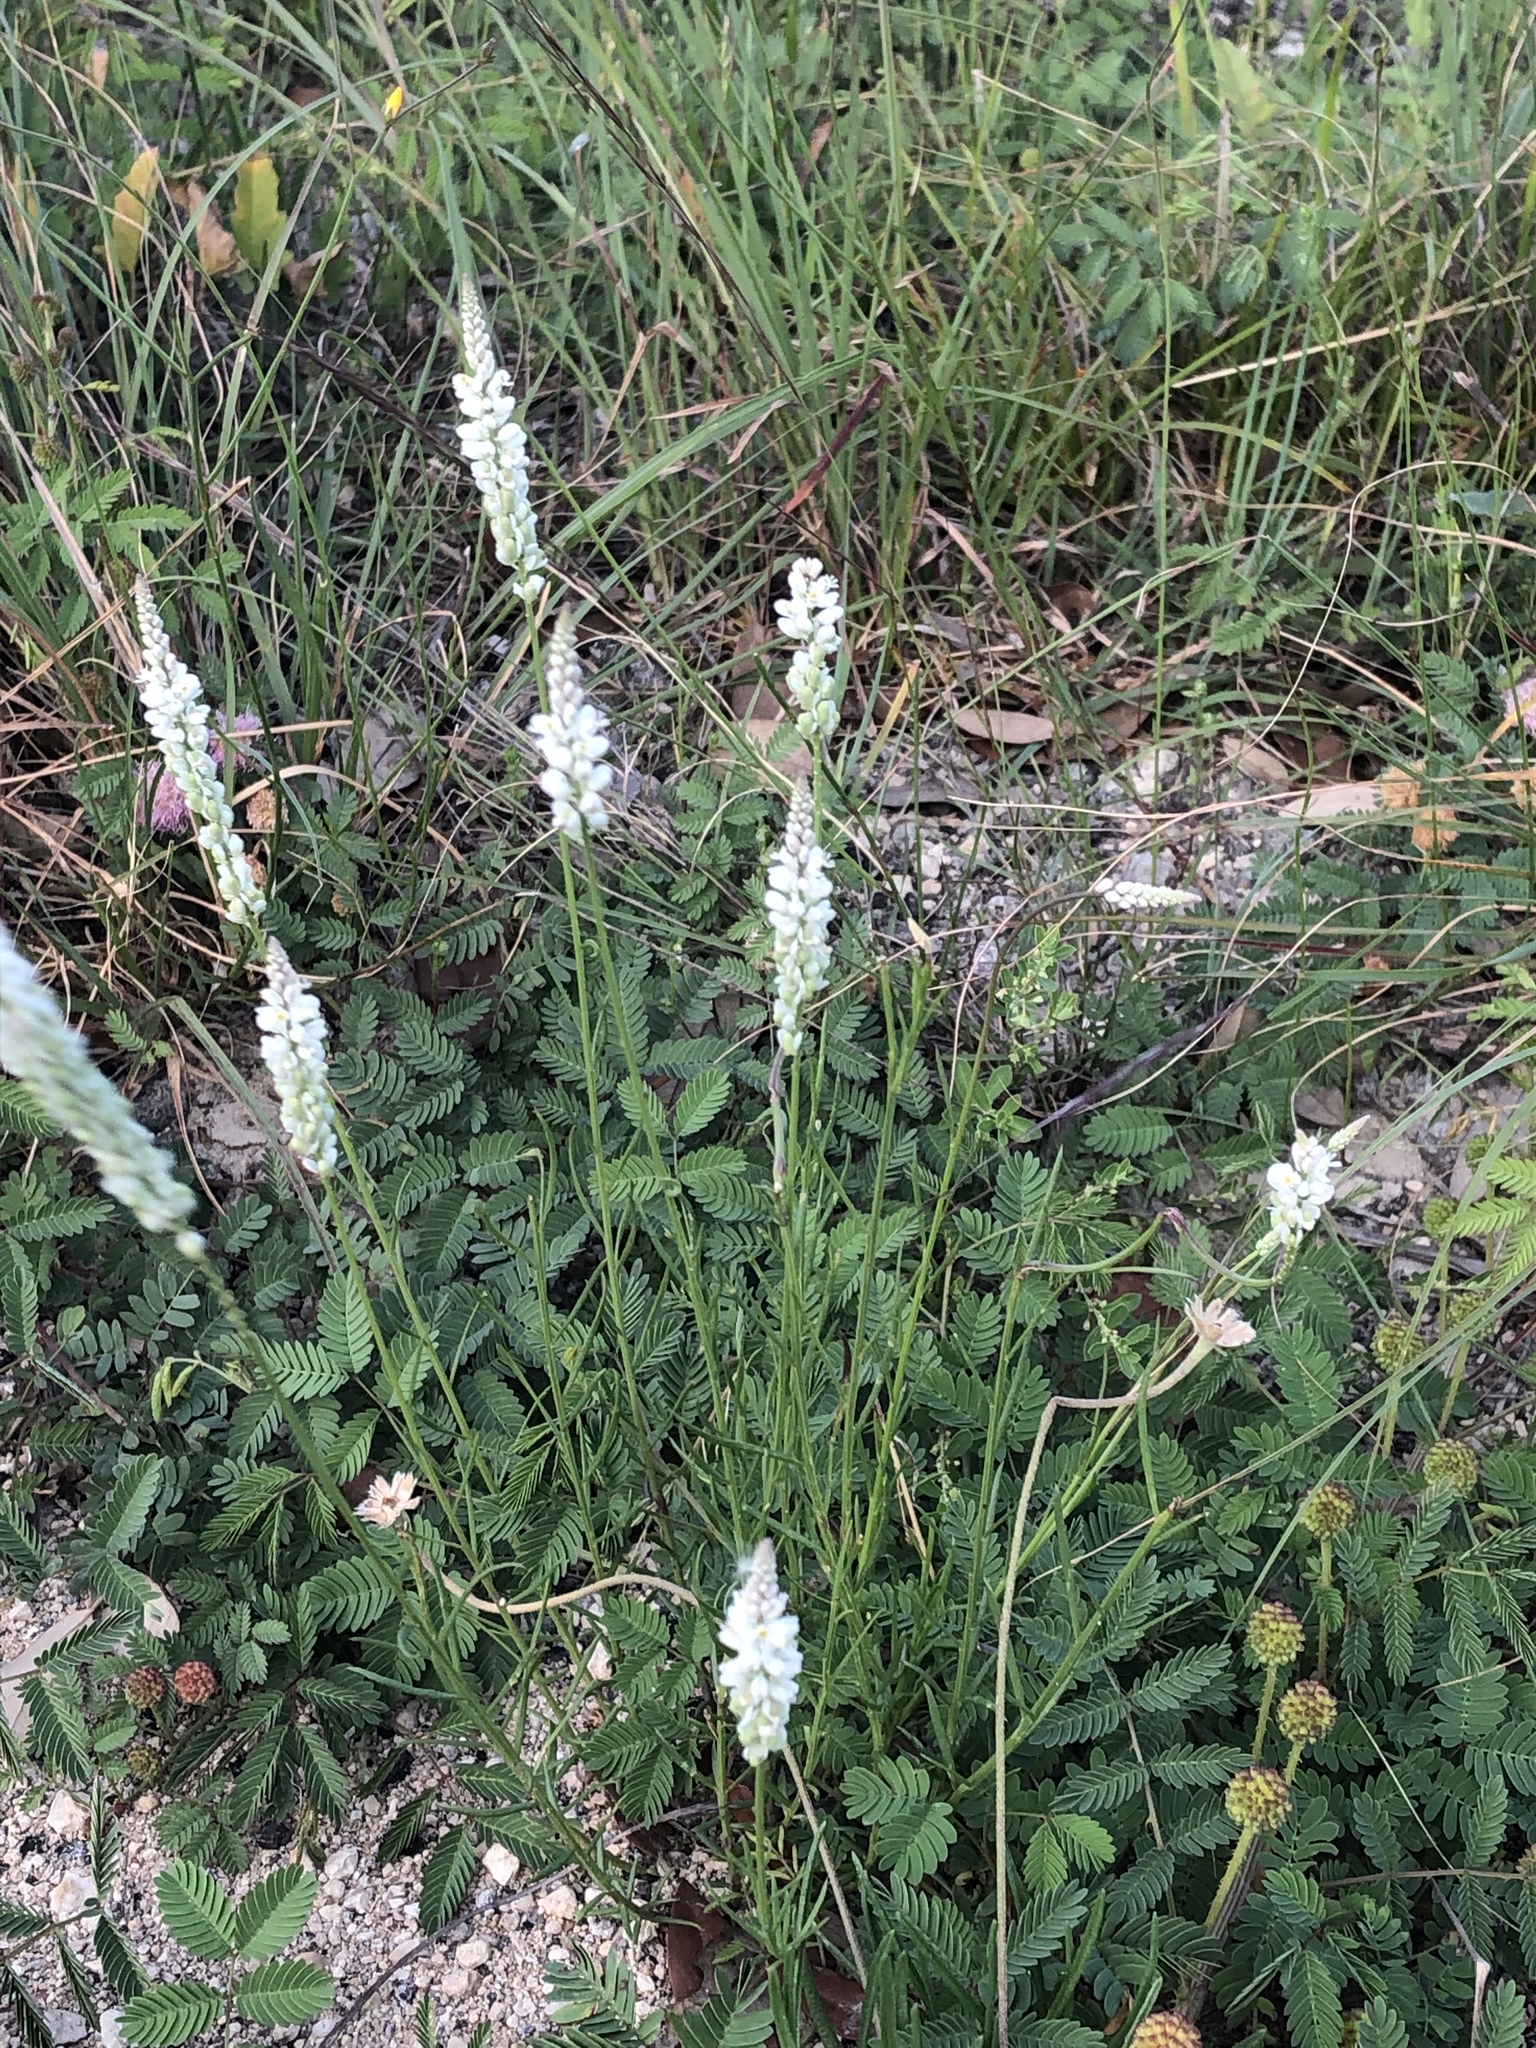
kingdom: Plantae
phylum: Tracheophyta
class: Magnoliopsida
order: Fabales
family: Polygalaceae
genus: Polygala
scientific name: Polygala alba
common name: White milkwort
